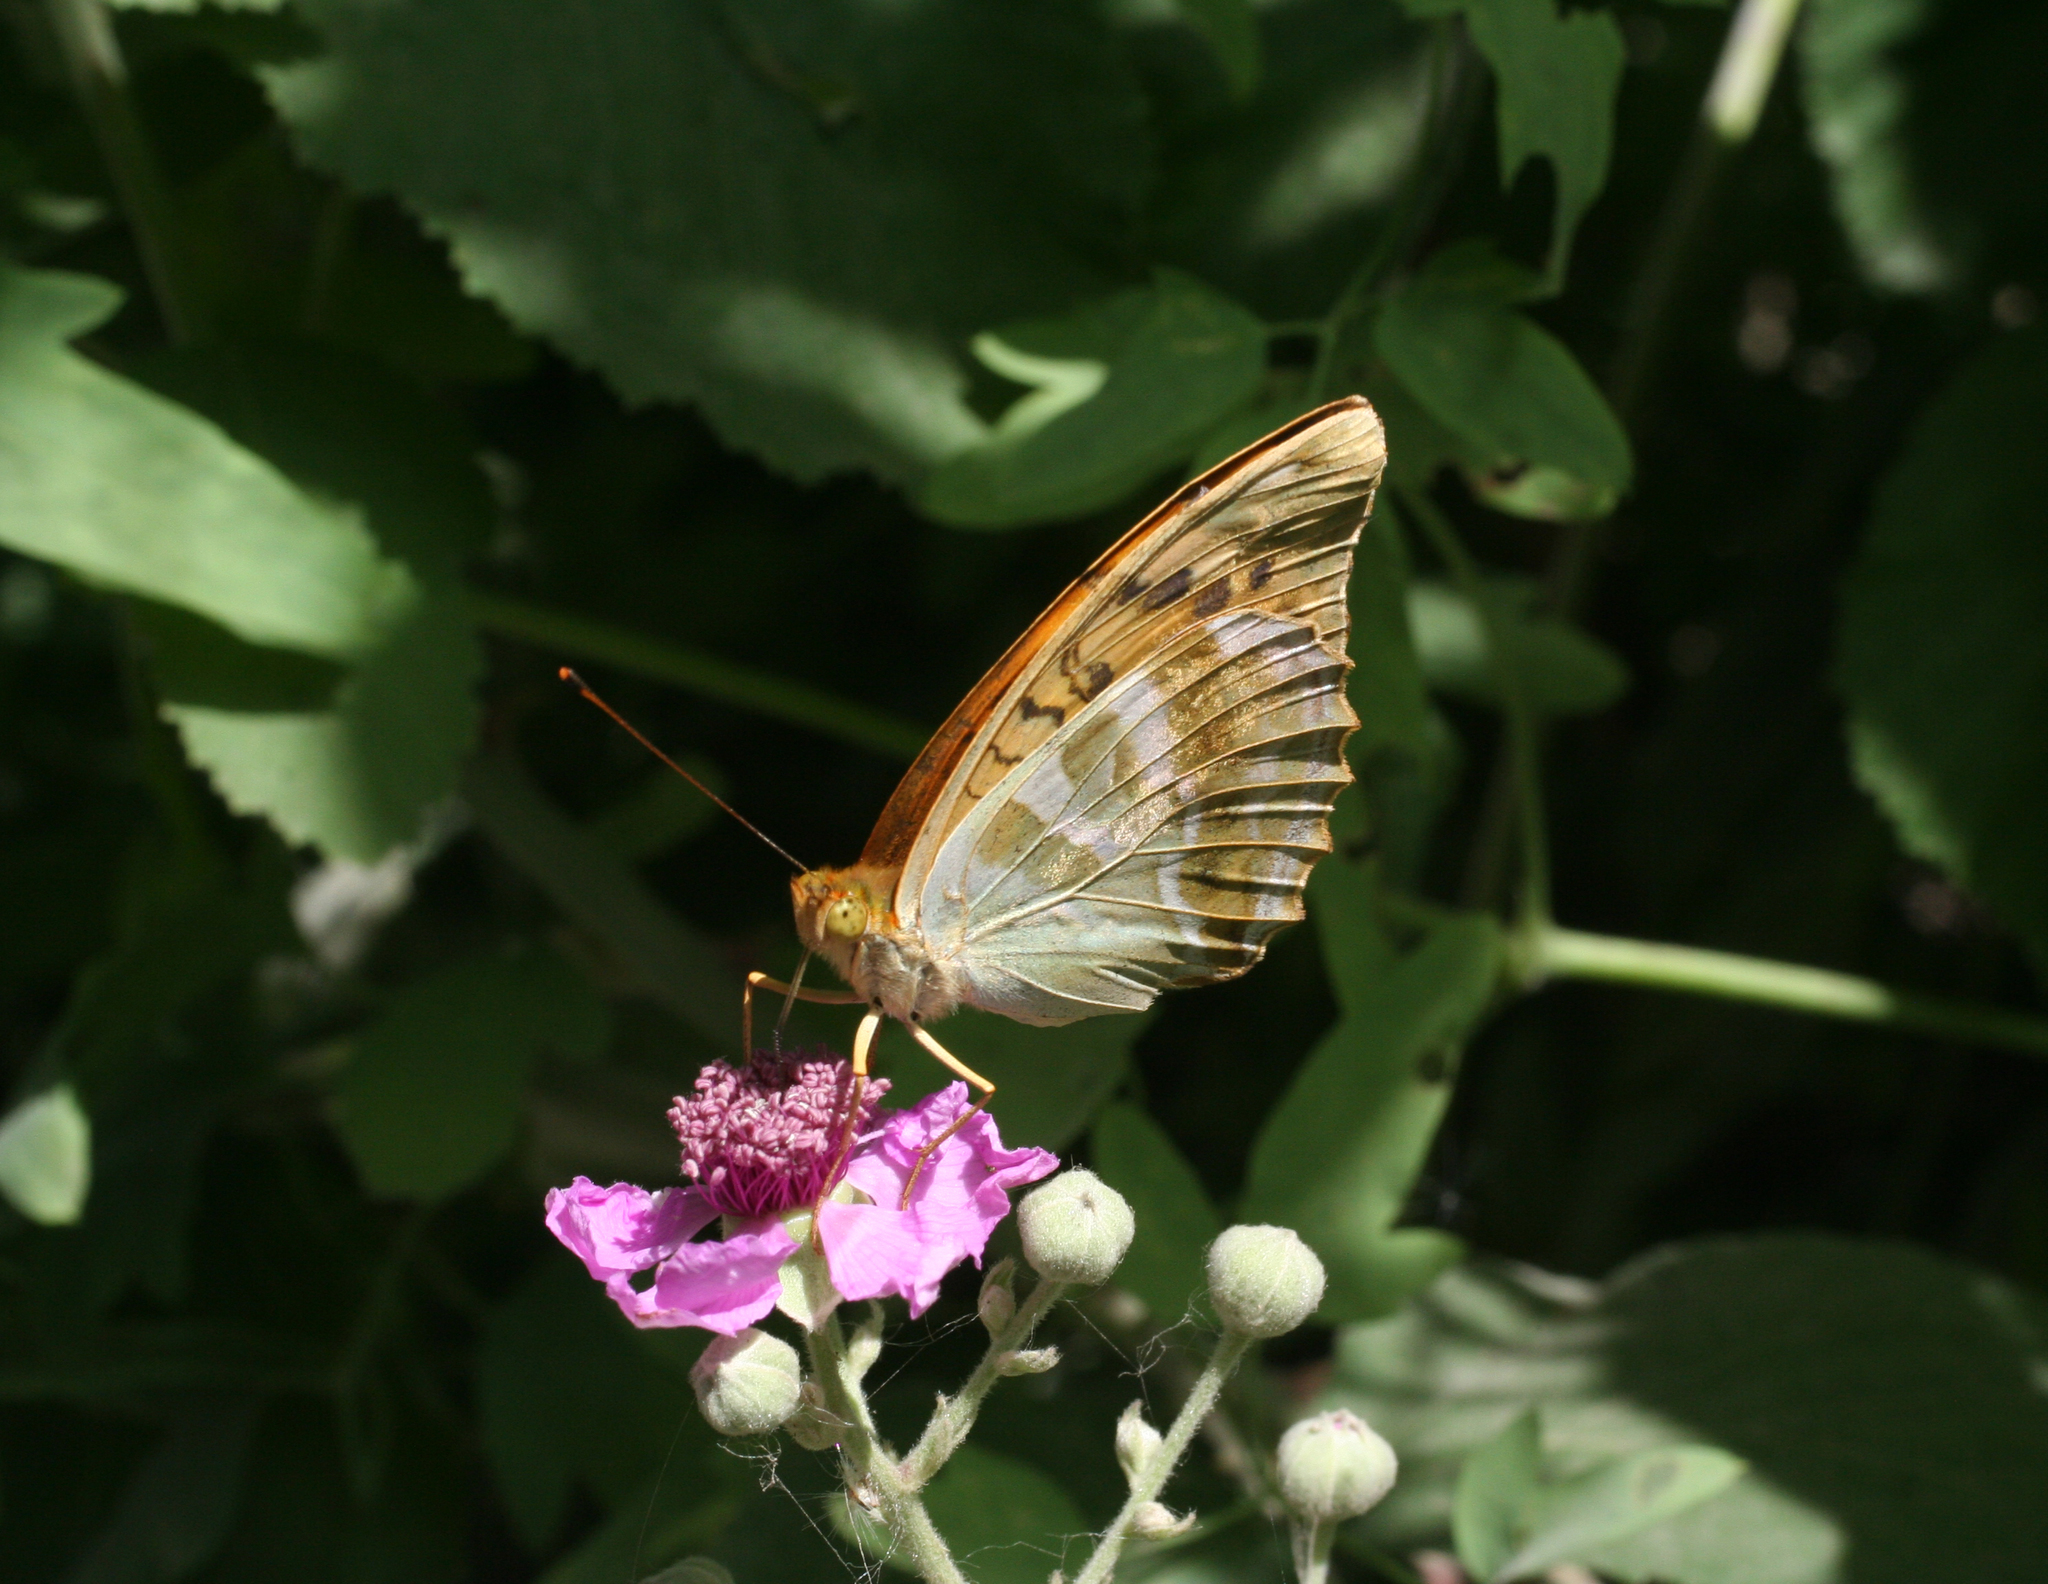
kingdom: Animalia
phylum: Arthropoda
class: Insecta
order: Lepidoptera
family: Nymphalidae
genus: Argynnis
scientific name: Argynnis paphia
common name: Silver-washed fritillary
